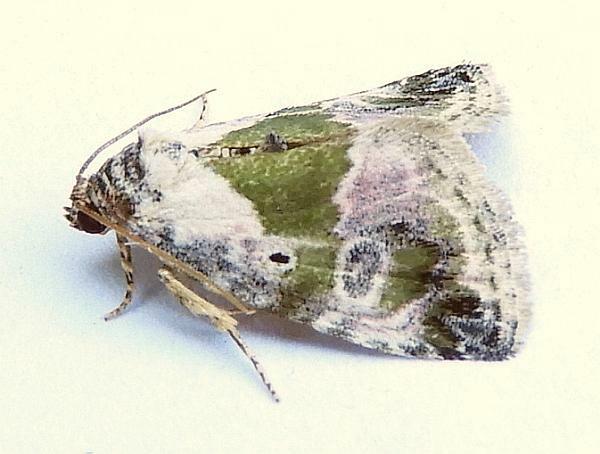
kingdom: Animalia
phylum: Arthropoda
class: Insecta
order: Lepidoptera
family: Noctuidae
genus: Maliattha
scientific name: Maliattha synochitis
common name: Black-dotted glyph
